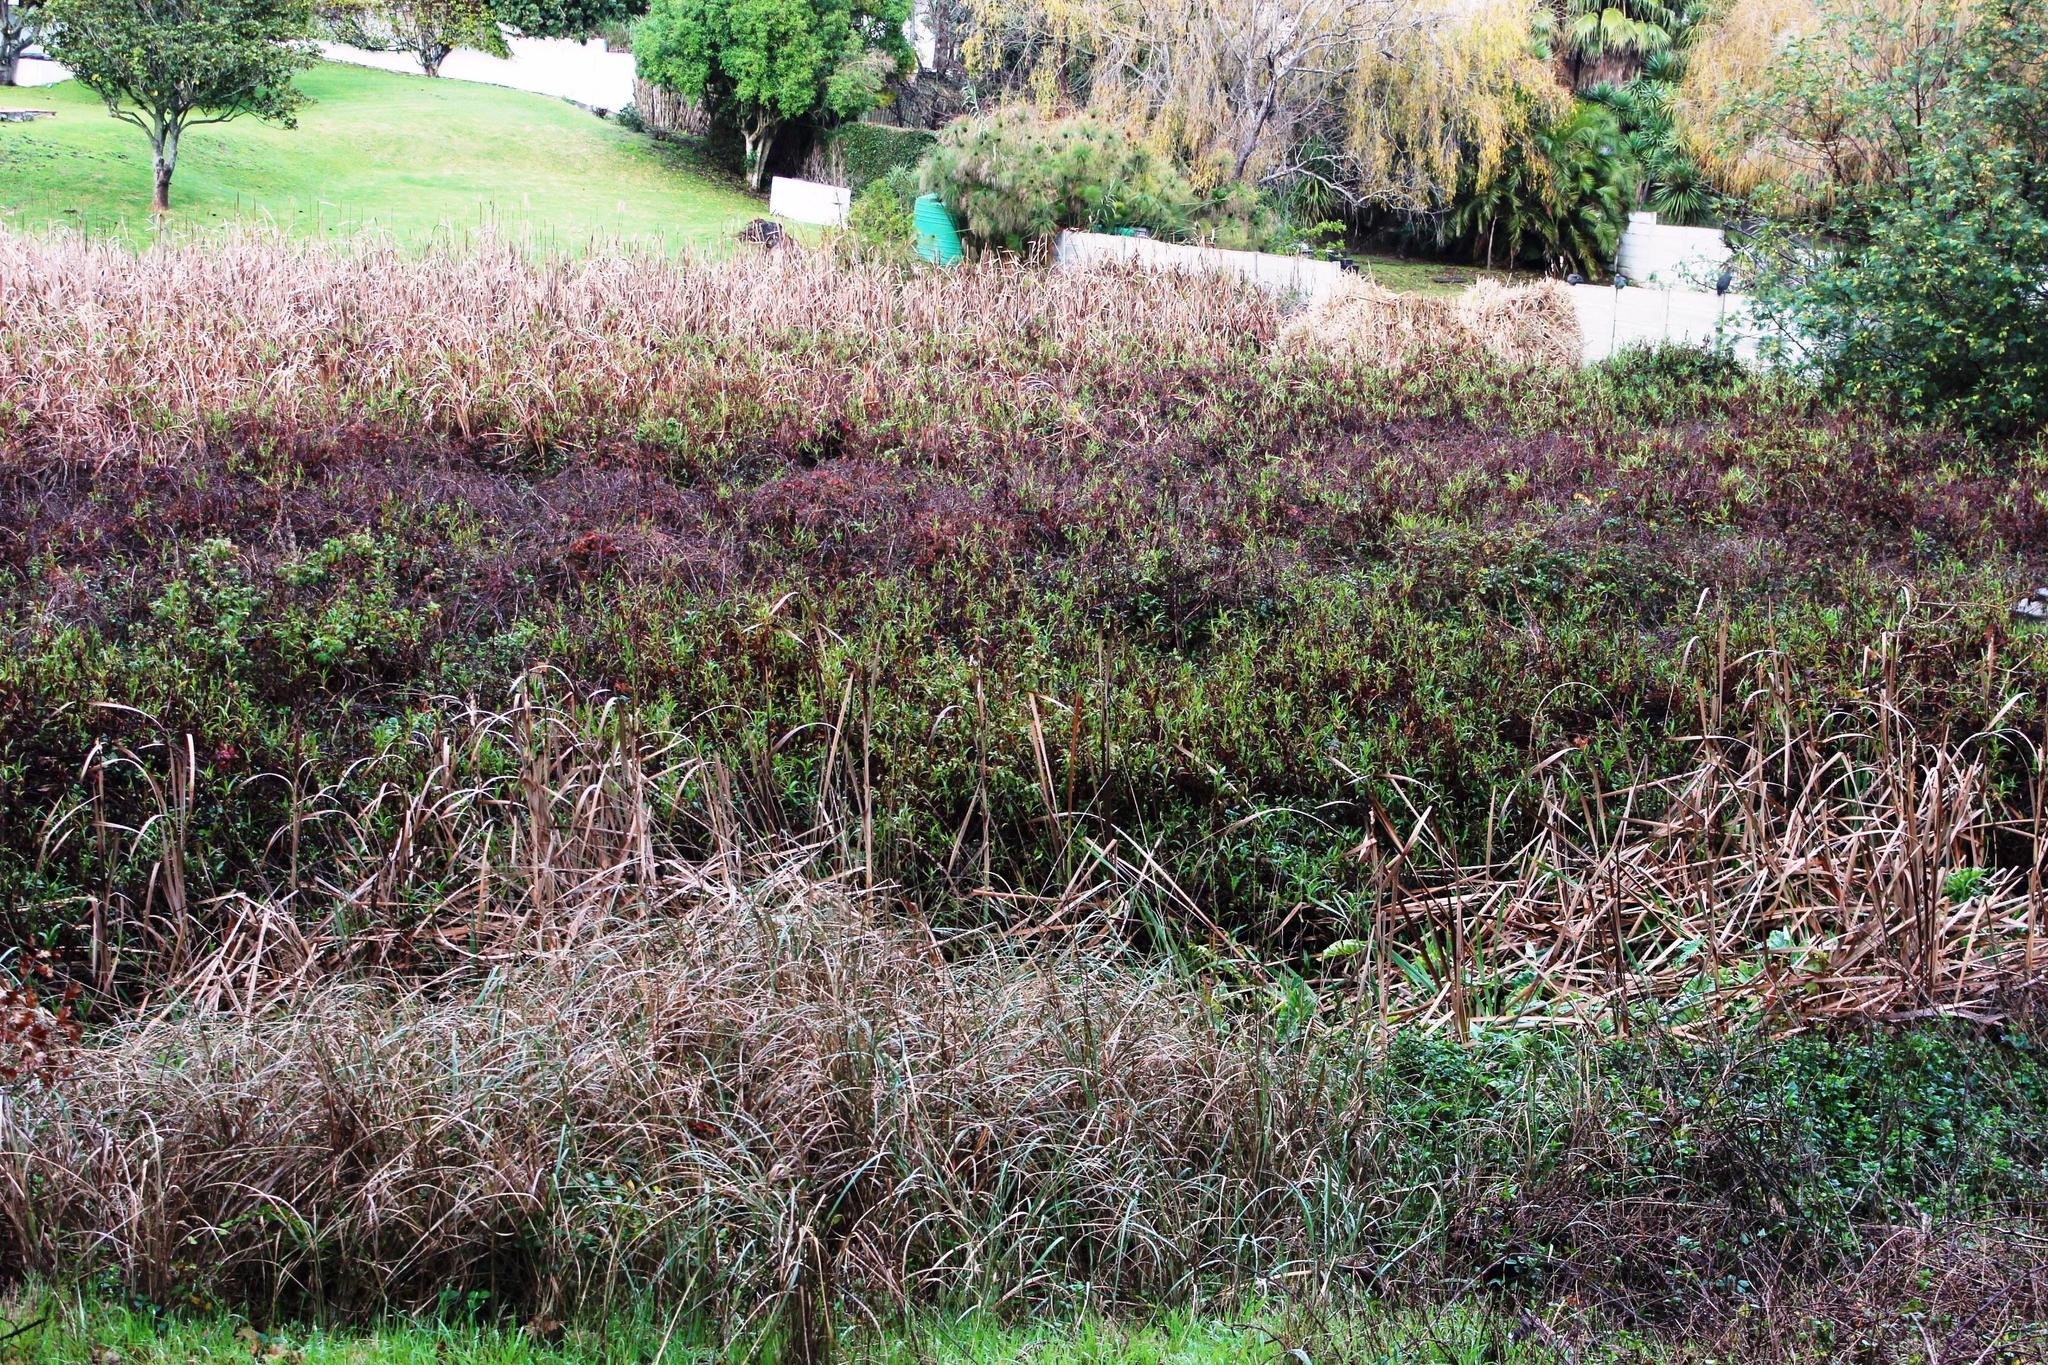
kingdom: Plantae
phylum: Tracheophyta
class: Magnoliopsida
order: Caryophyllales
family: Polygonaceae
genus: Persicaria
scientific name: Persicaria decipiens
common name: Willow-weed
